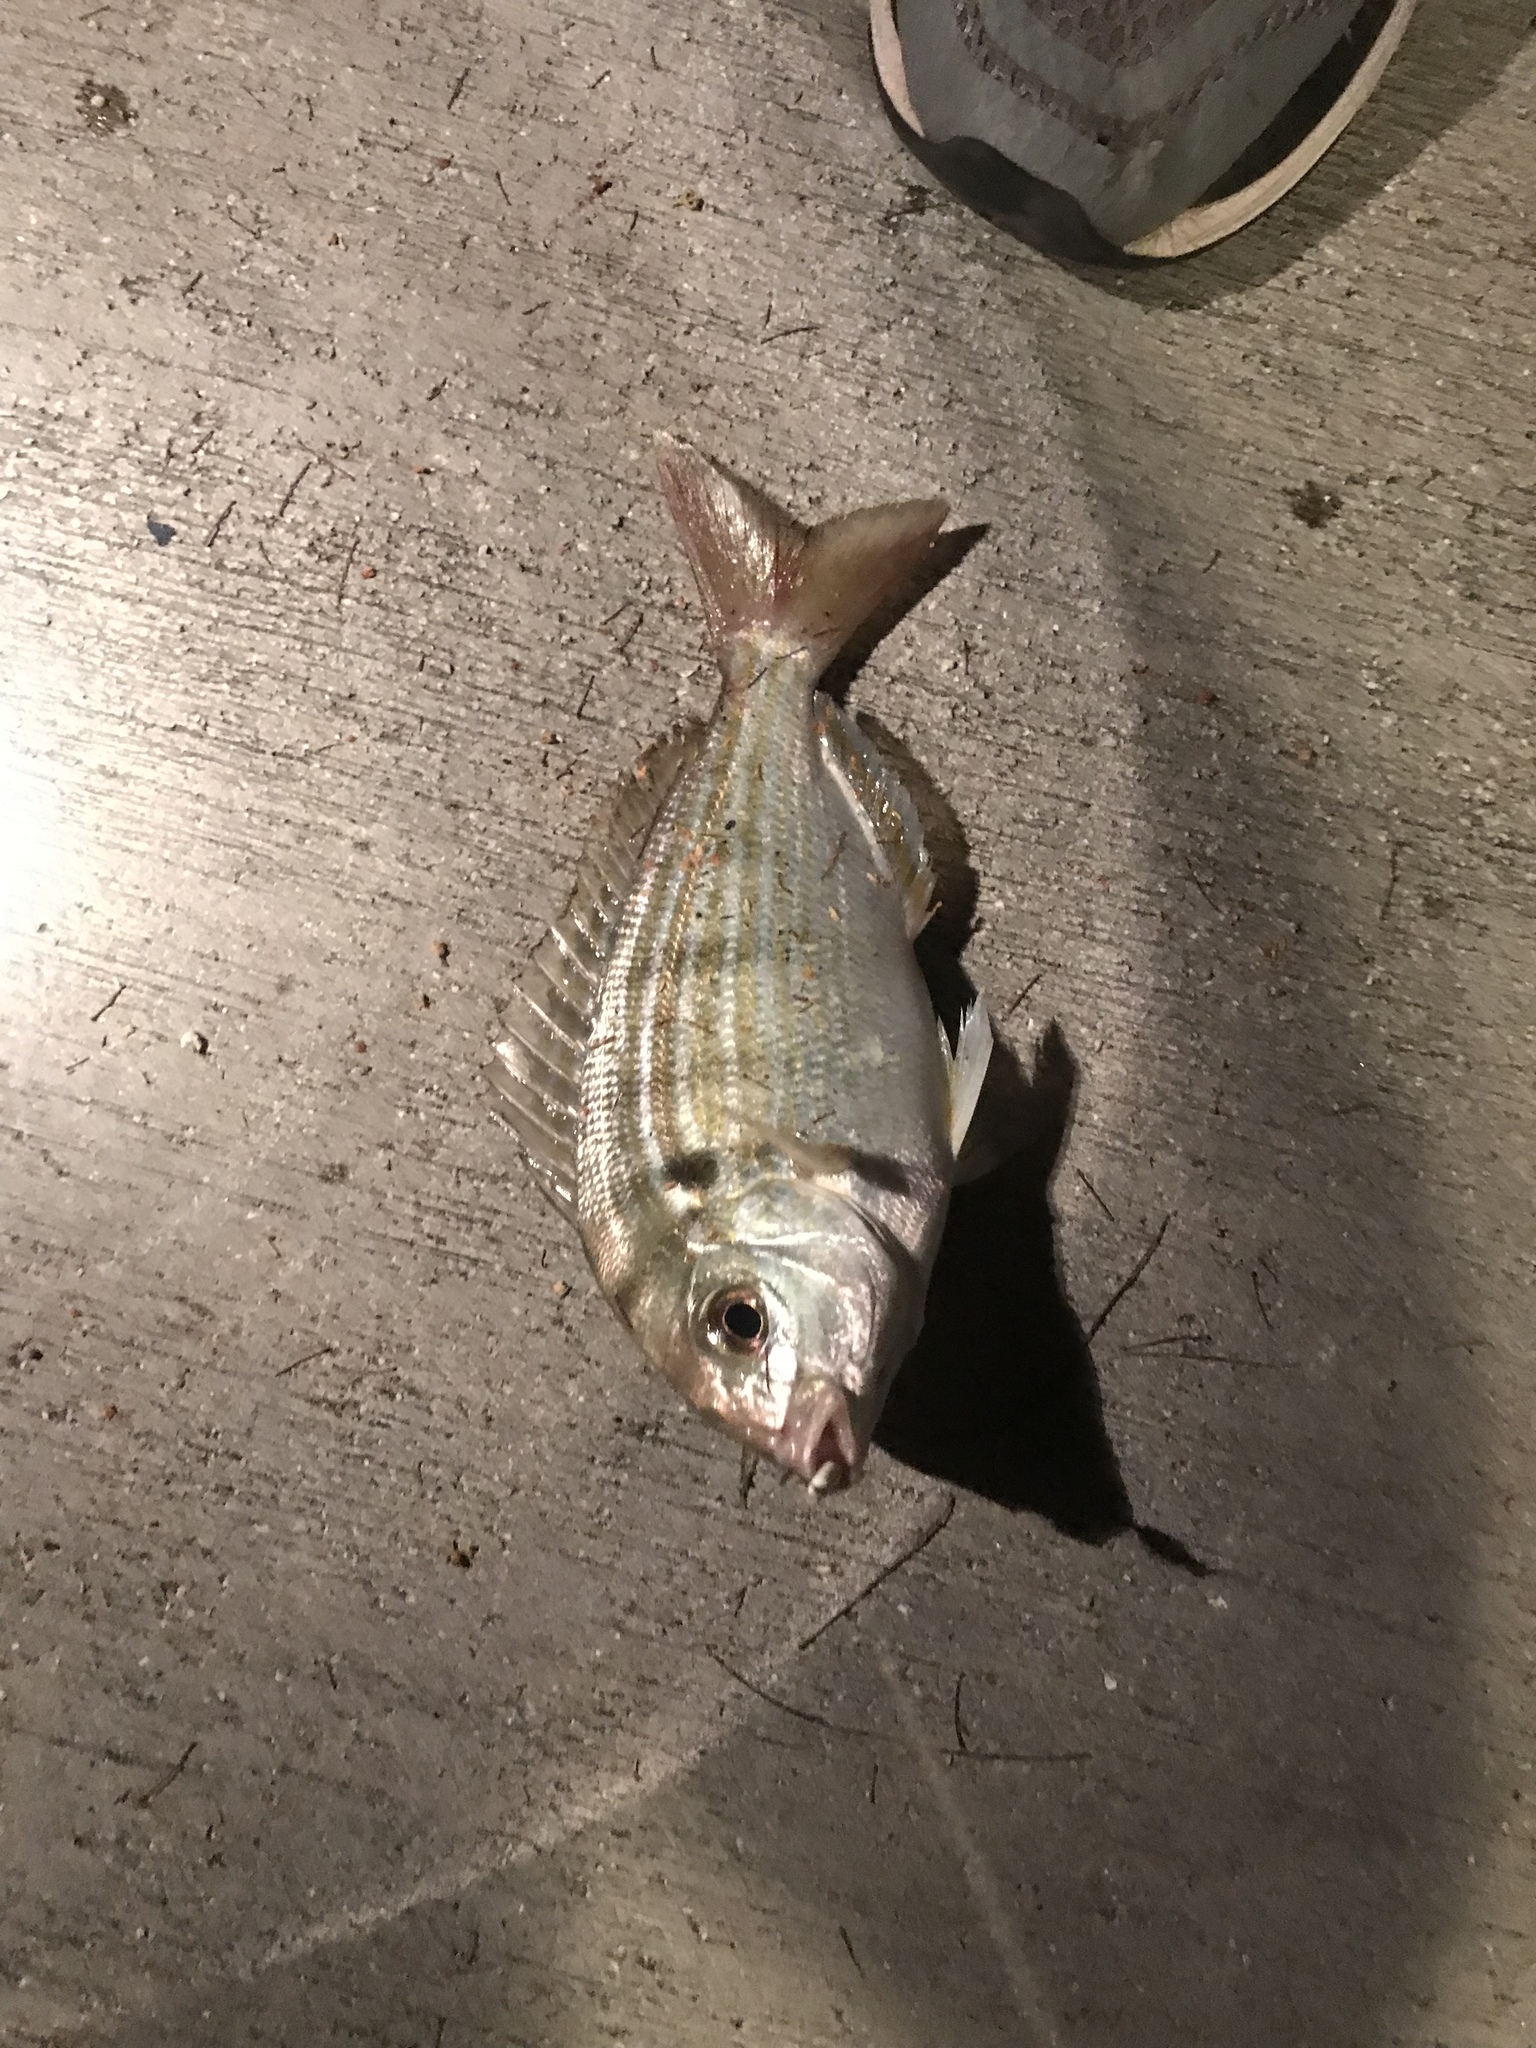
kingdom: Animalia
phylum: Chordata
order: Perciformes
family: Sparidae
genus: Lagodon
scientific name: Lagodon rhomboides
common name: Pinfish
